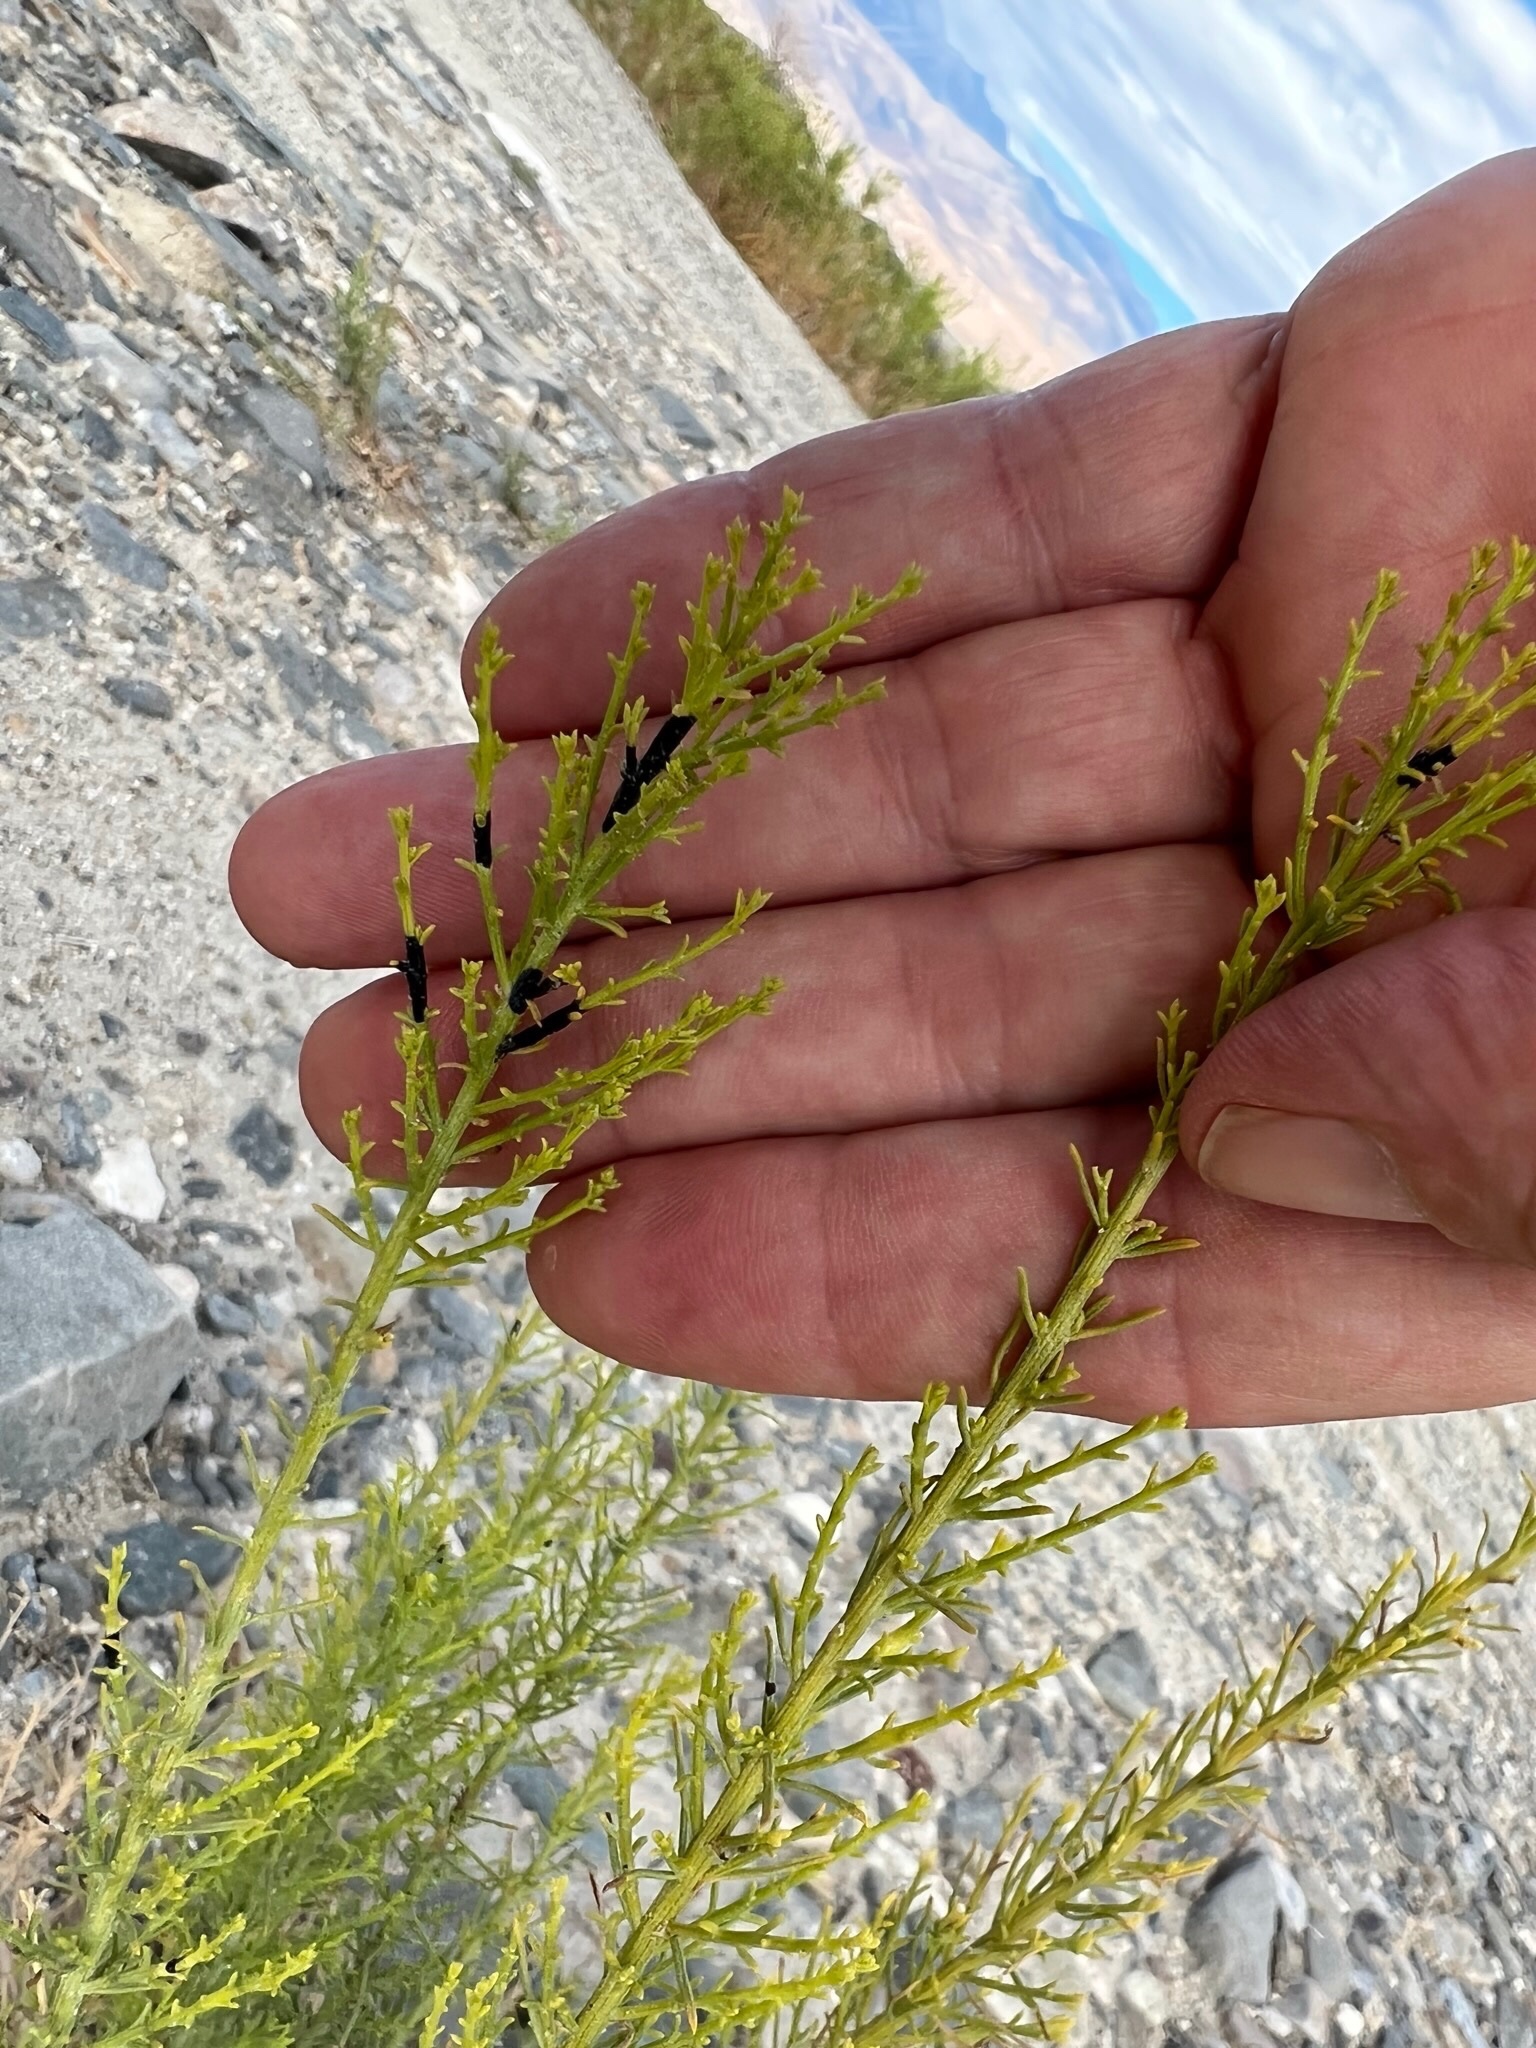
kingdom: Plantae
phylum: Tracheophyta
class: Magnoliopsida
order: Asterales
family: Asteraceae
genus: Ericameria
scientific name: Ericameria paniculata
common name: Punctate rabbitbrush
